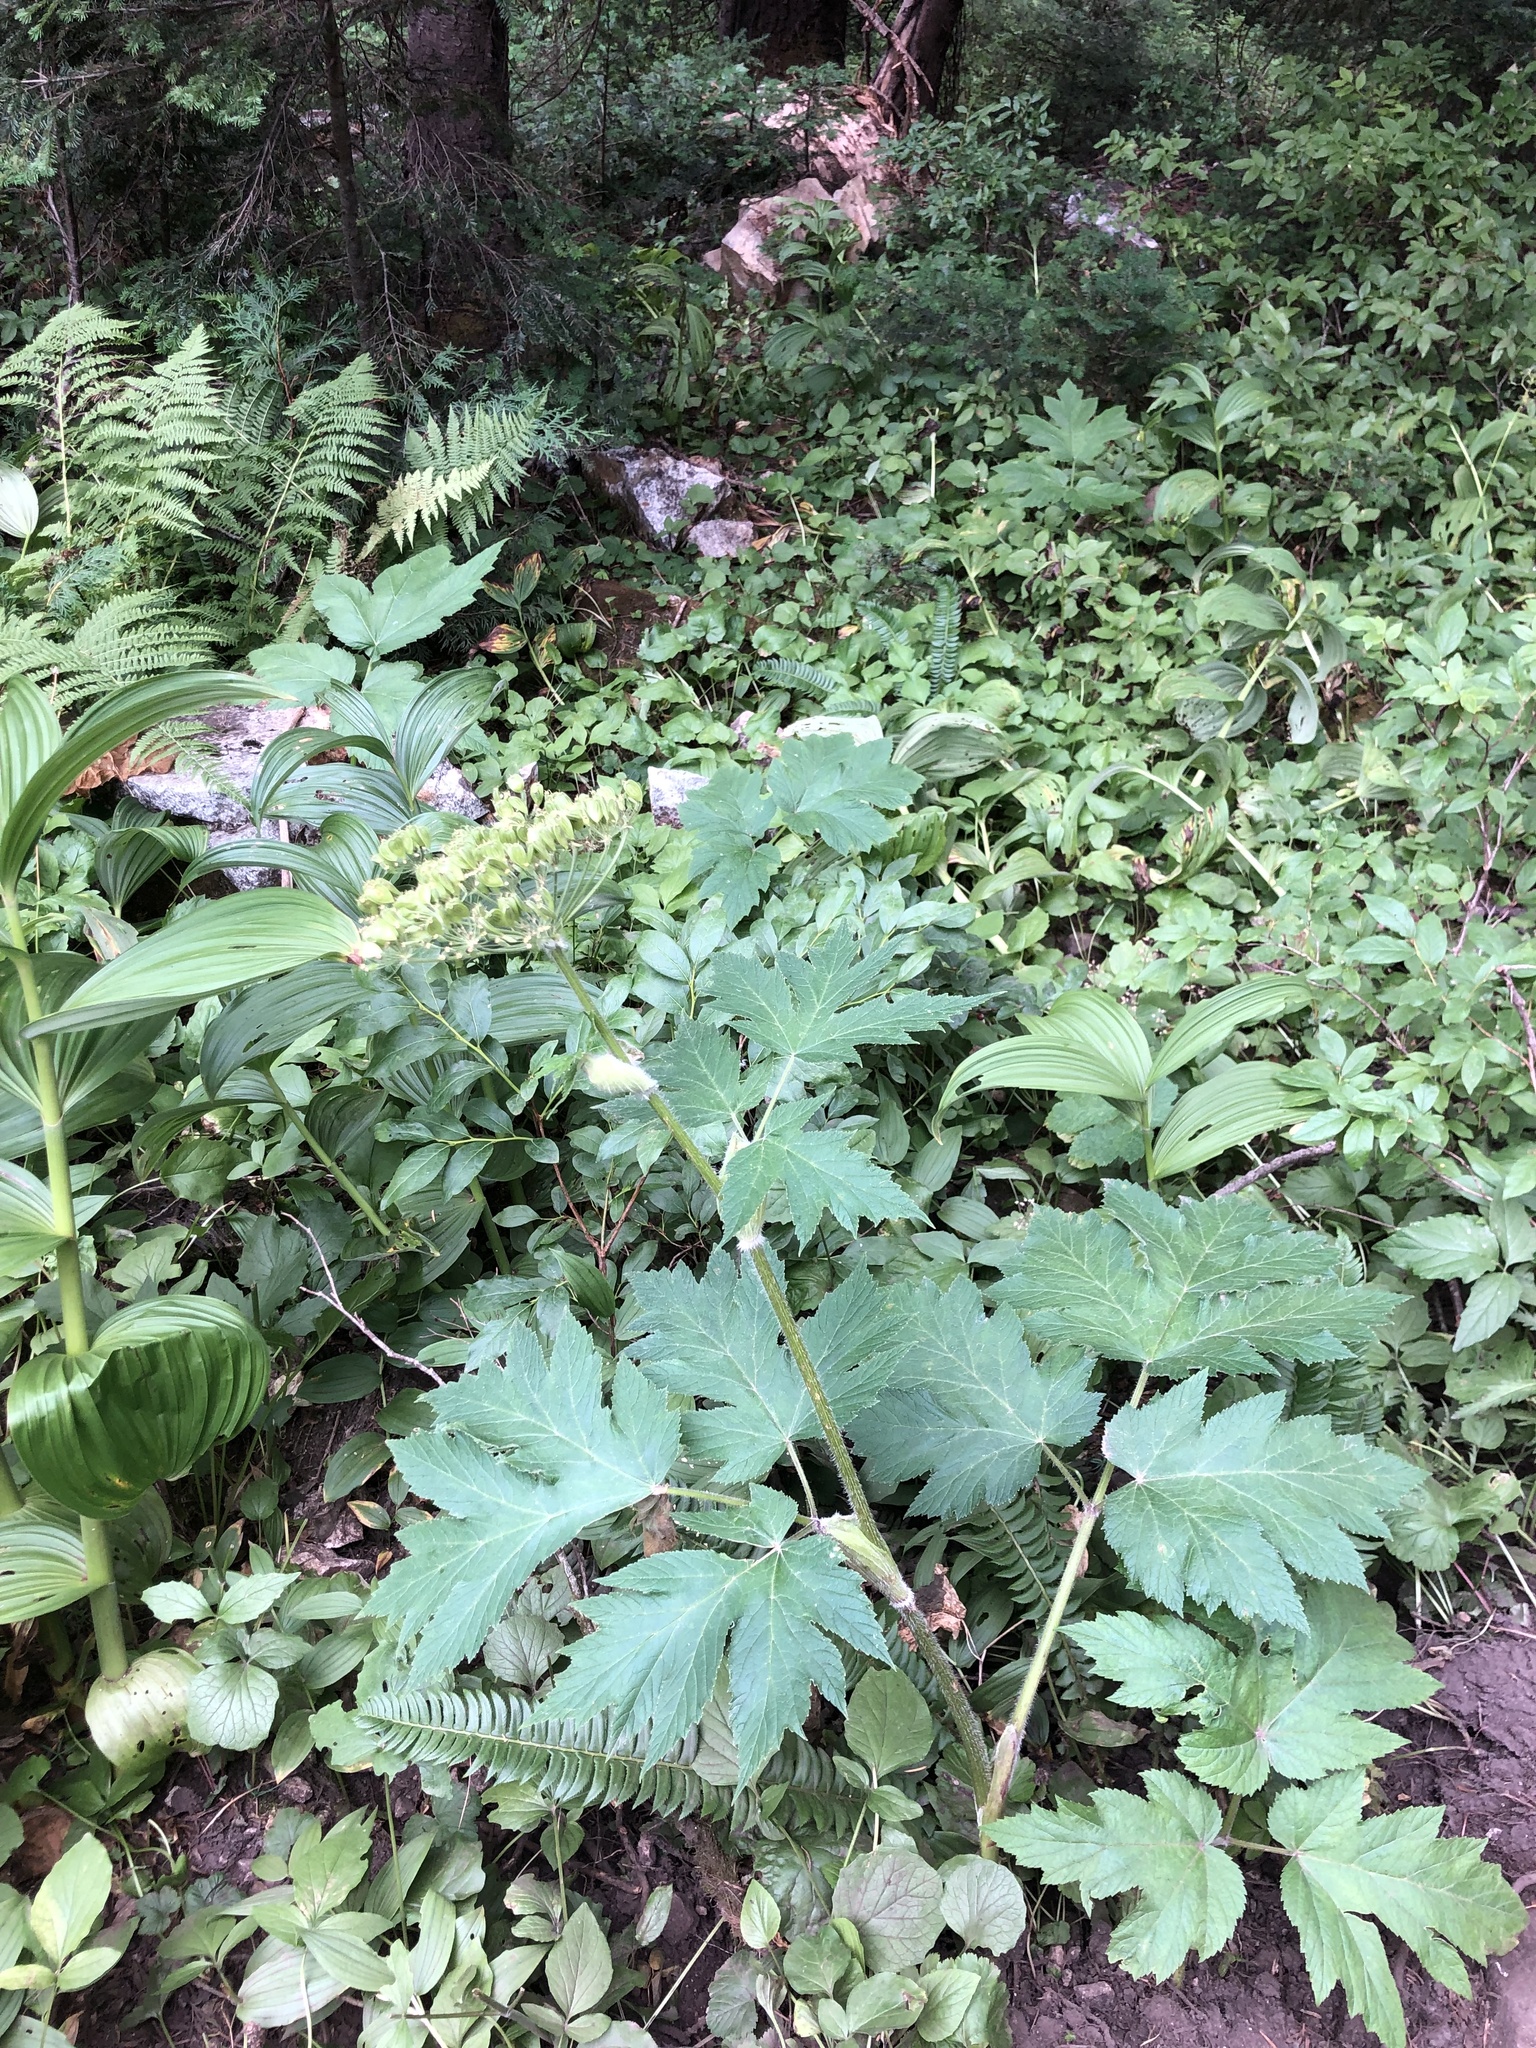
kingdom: Plantae
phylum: Tracheophyta
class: Magnoliopsida
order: Apiales
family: Apiaceae
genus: Heracleum
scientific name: Heracleum maximum
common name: American cow parsnip
